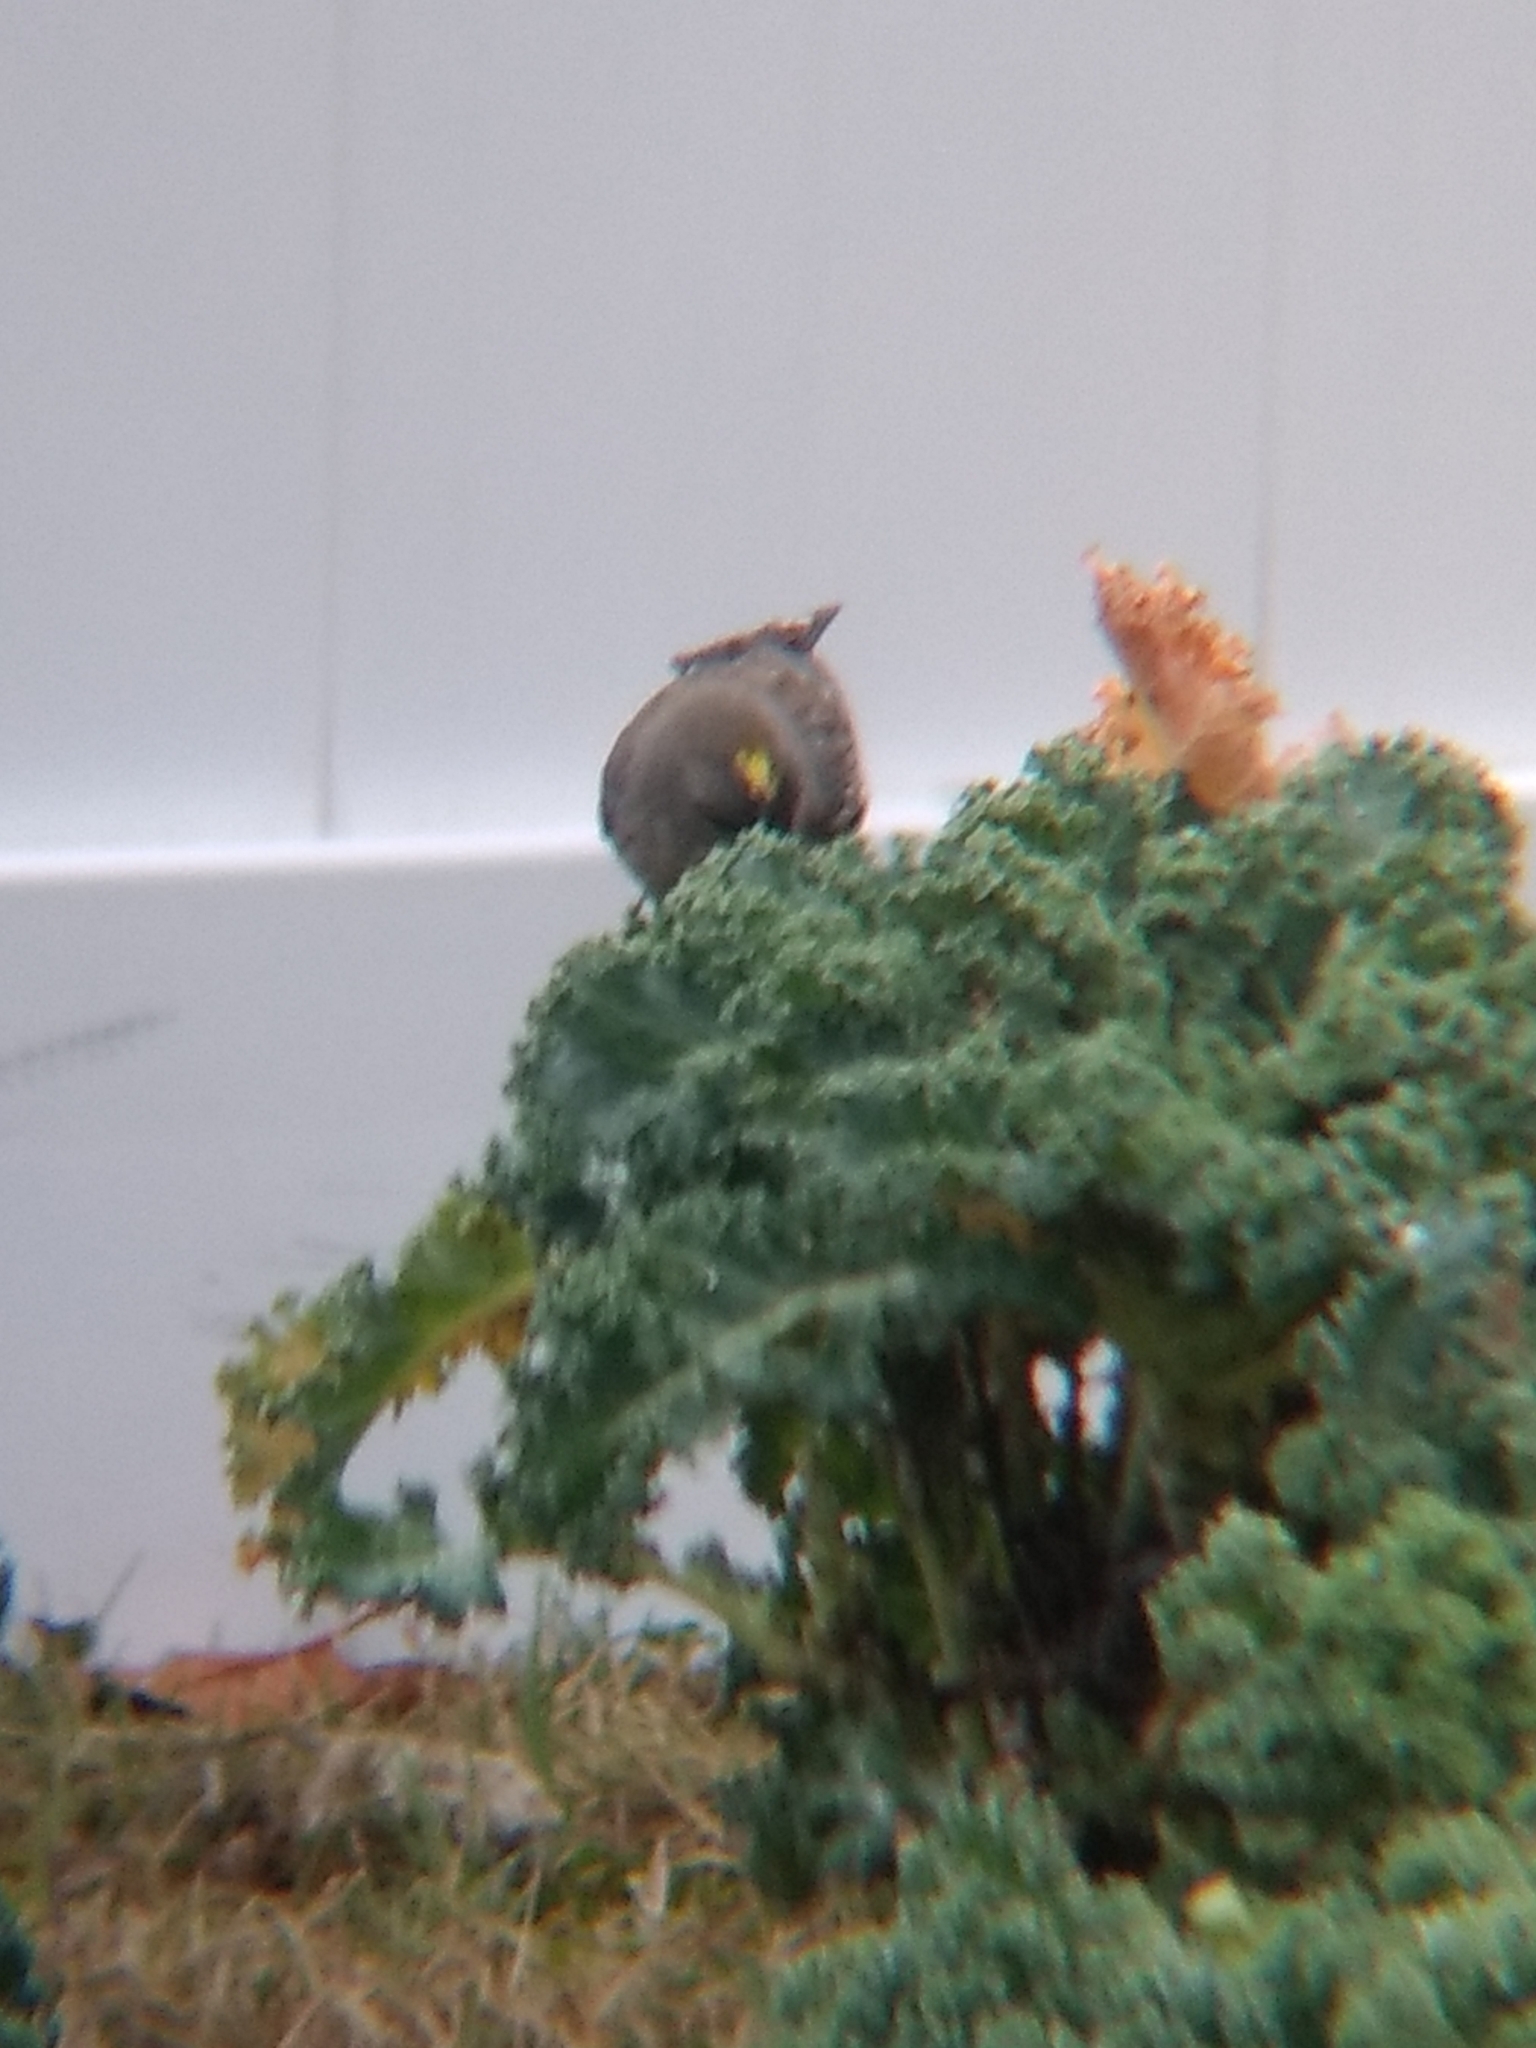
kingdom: Animalia
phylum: Chordata
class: Aves
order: Passeriformes
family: Parulidae
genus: Setophaga
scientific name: Setophaga coronata
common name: Myrtle warbler
